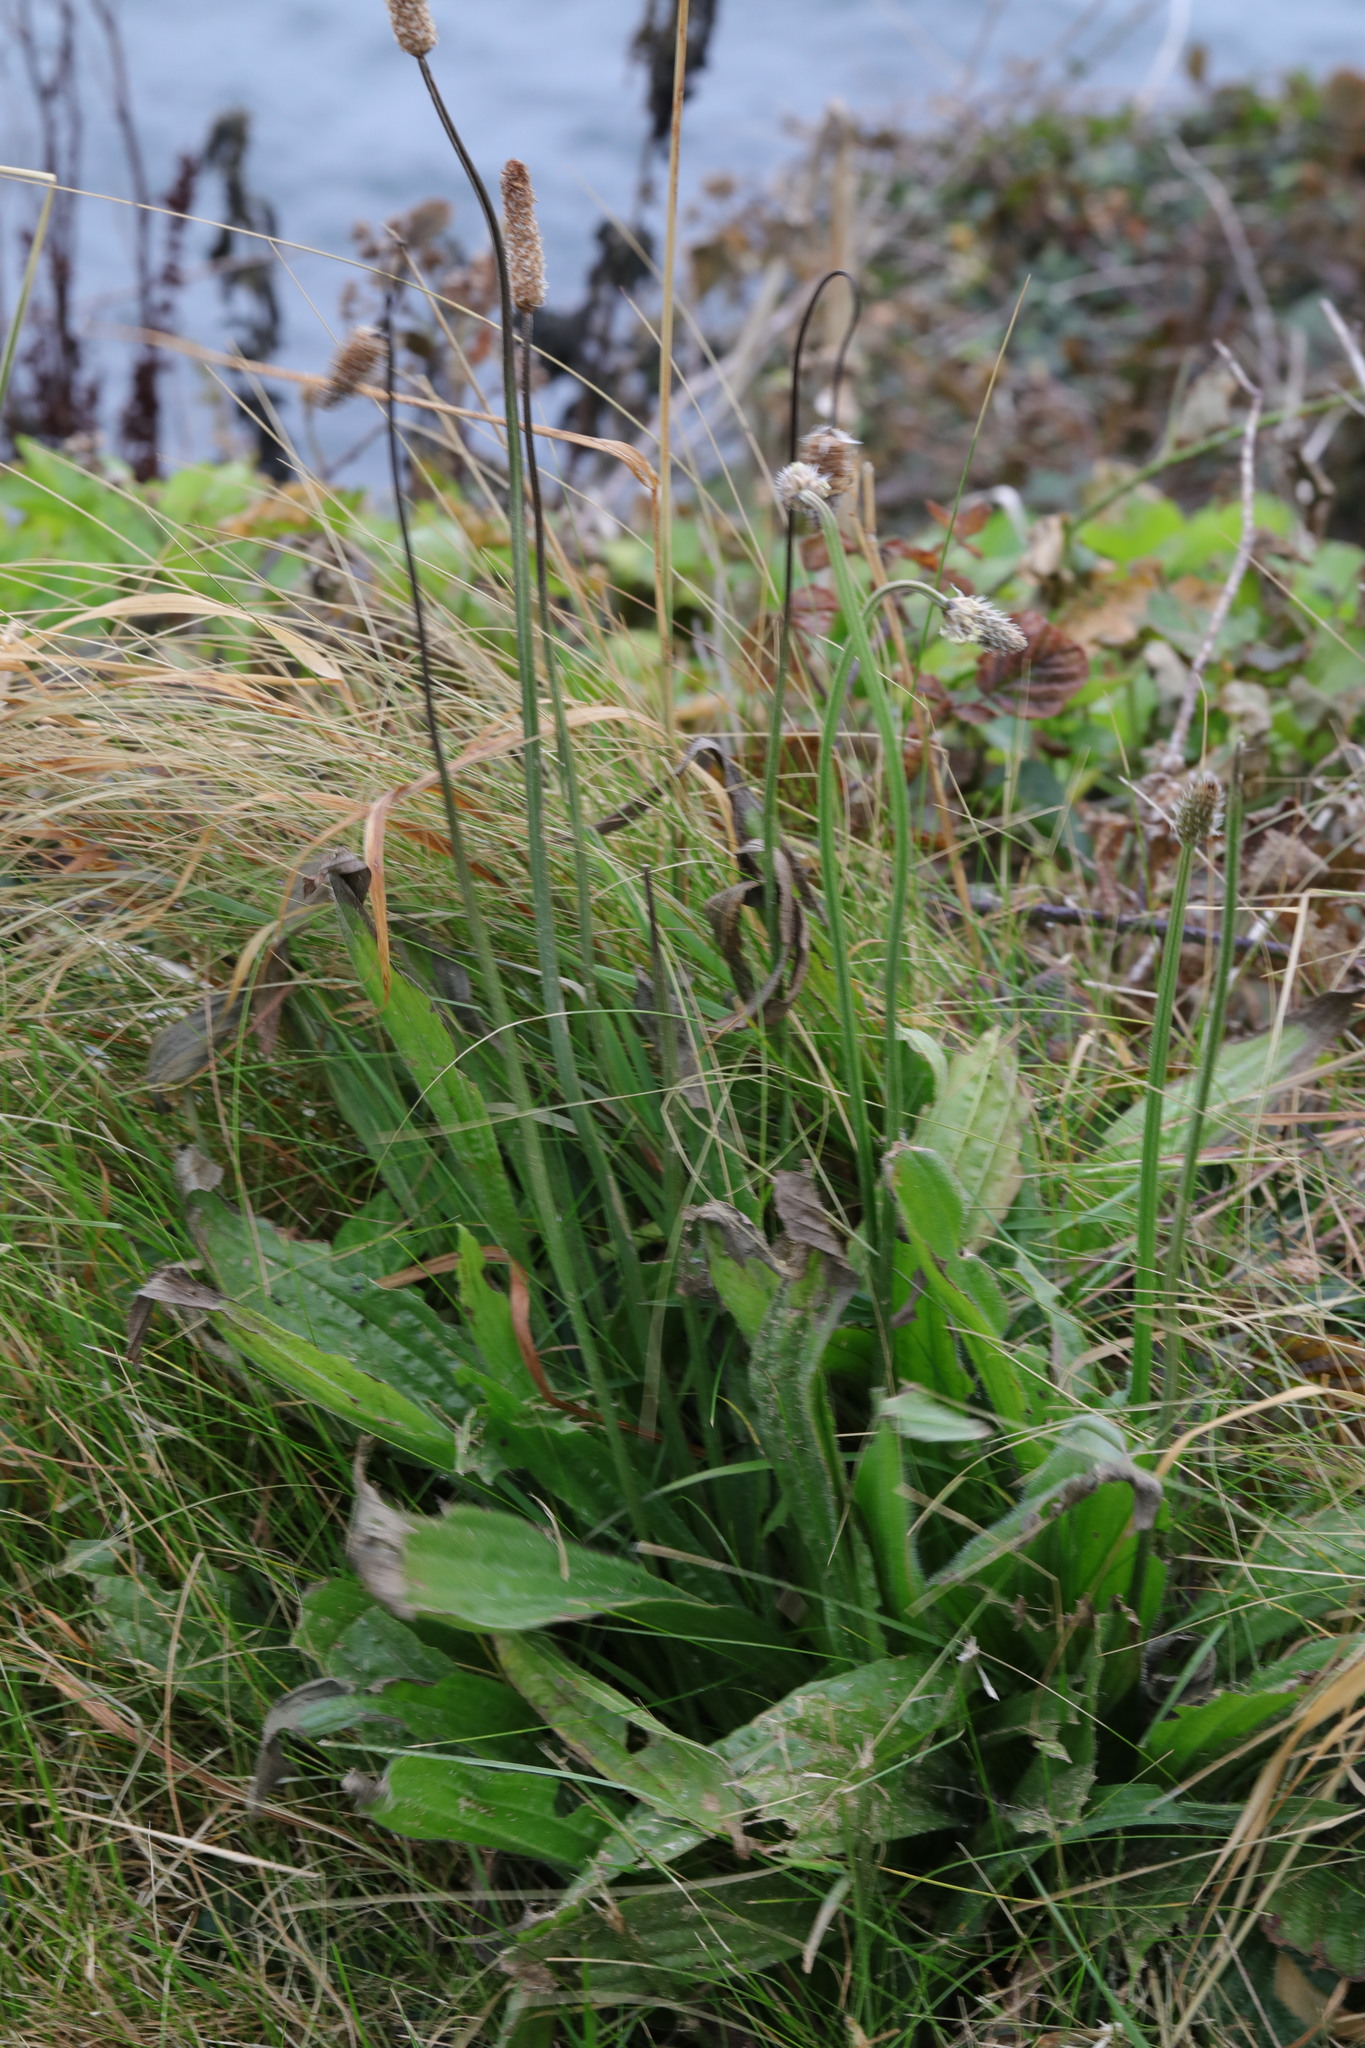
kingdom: Plantae
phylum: Tracheophyta
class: Magnoliopsida
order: Lamiales
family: Plantaginaceae
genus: Plantago
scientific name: Plantago lanceolata
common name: Ribwort plantain
